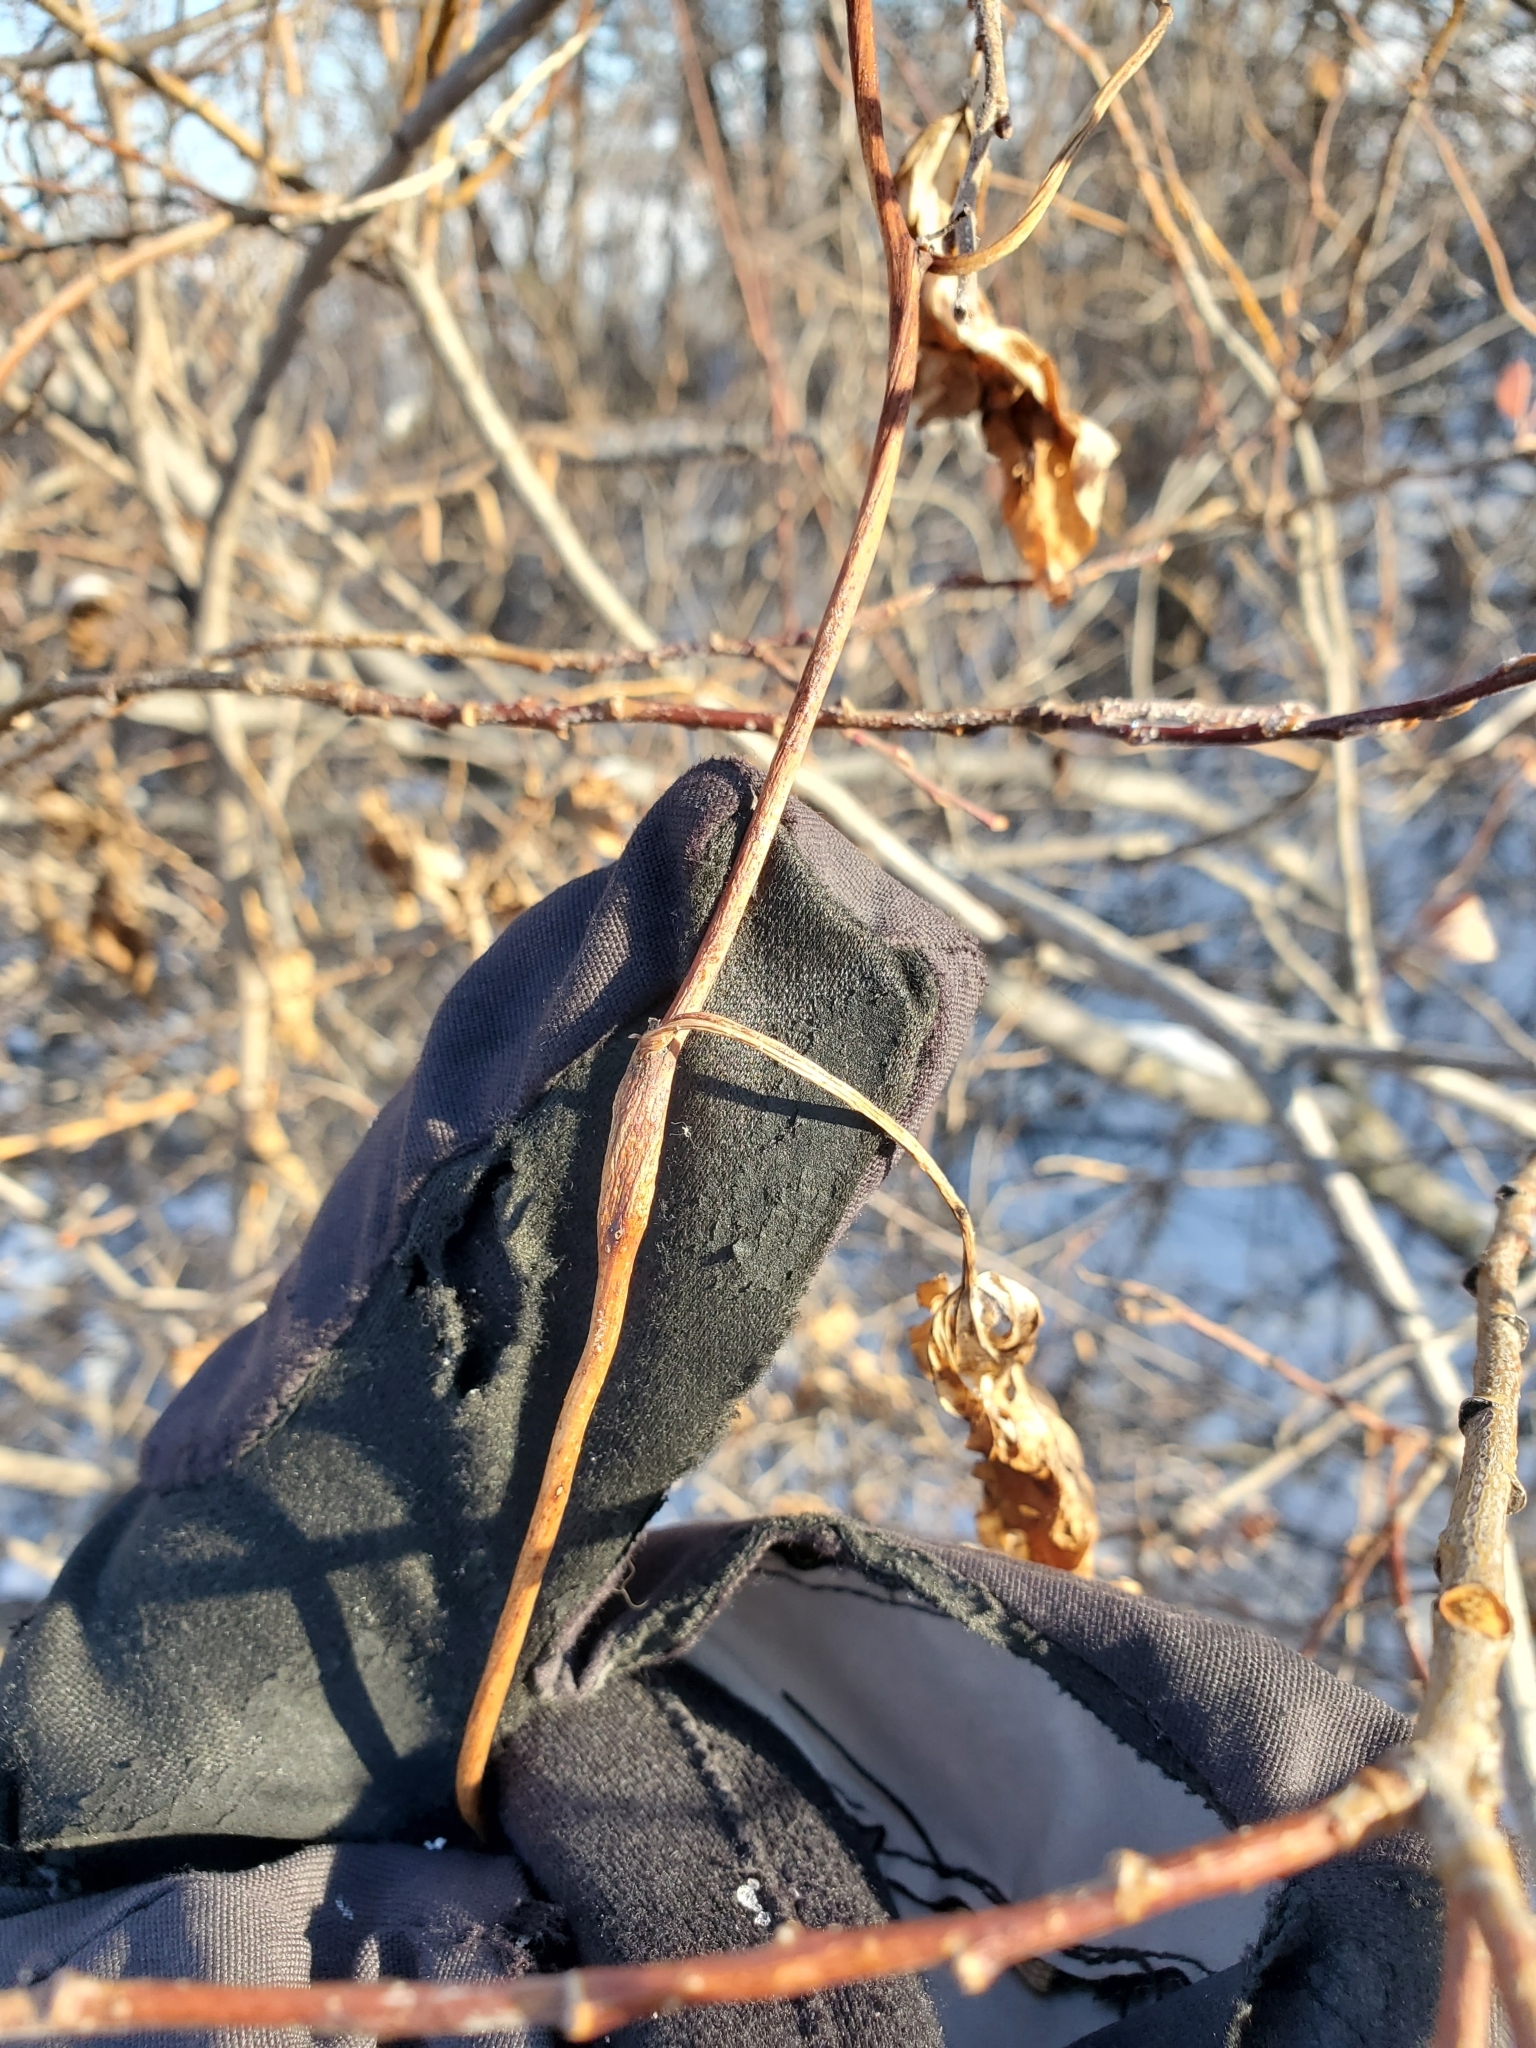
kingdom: Animalia
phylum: Arthropoda
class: Insecta
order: Diptera
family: Cecidomyiidae
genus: Neolasioptera
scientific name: Neolasioptera convolvuli
